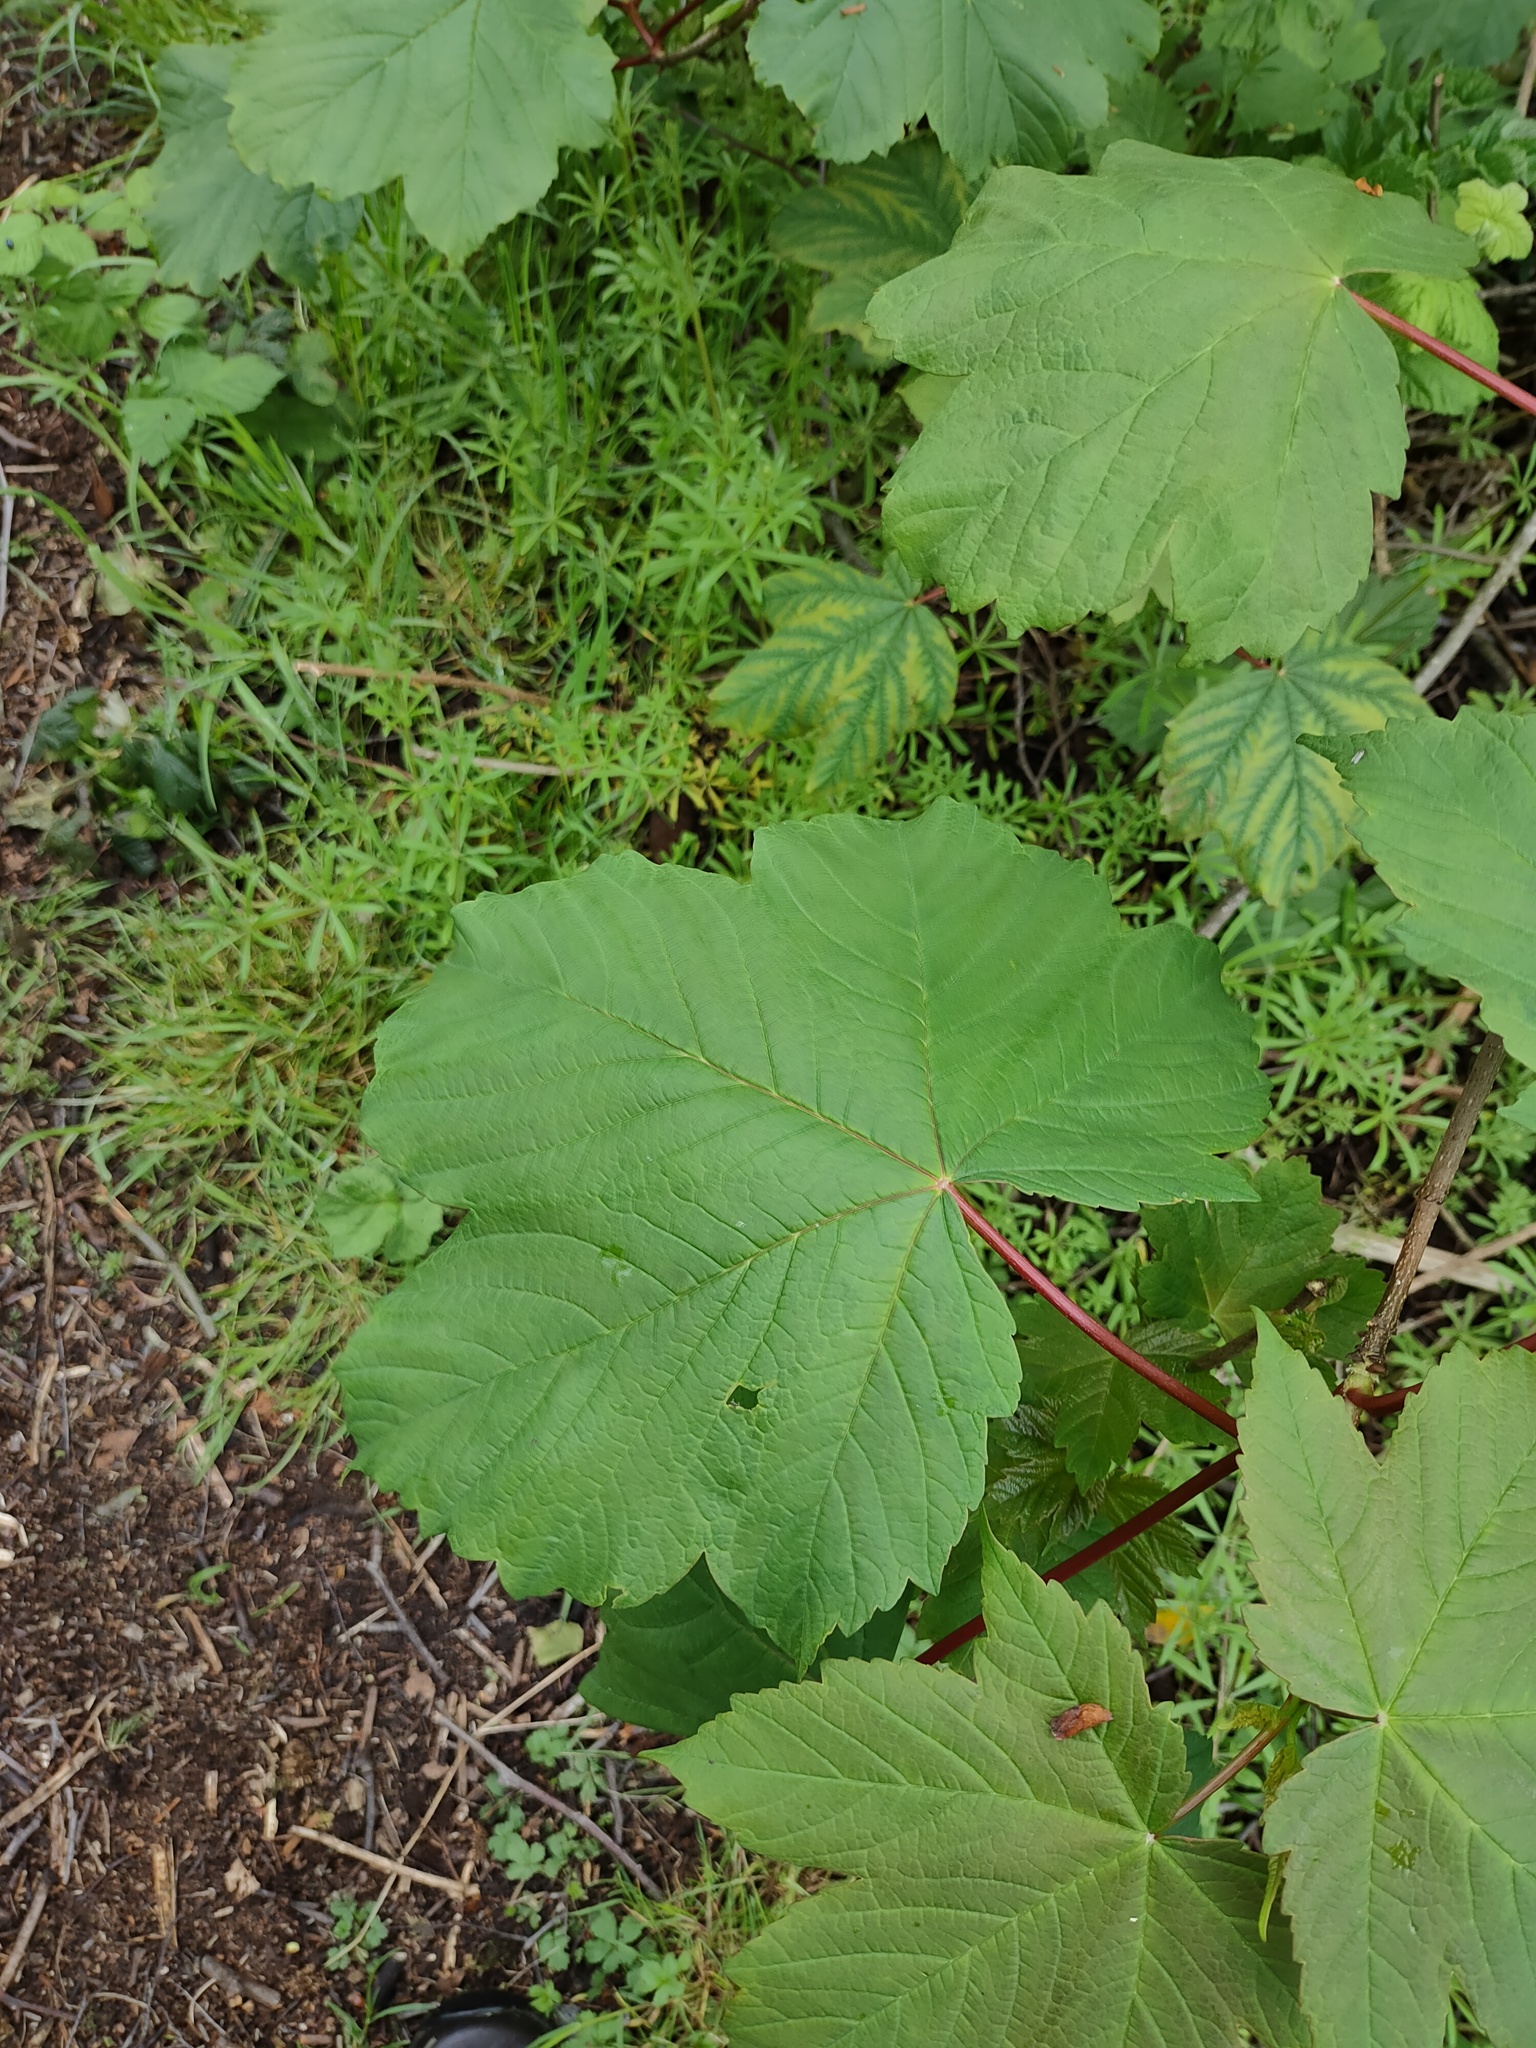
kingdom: Plantae
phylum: Tracheophyta
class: Magnoliopsida
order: Sapindales
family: Sapindaceae
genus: Acer
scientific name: Acer pseudoplatanus
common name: Sycamore
